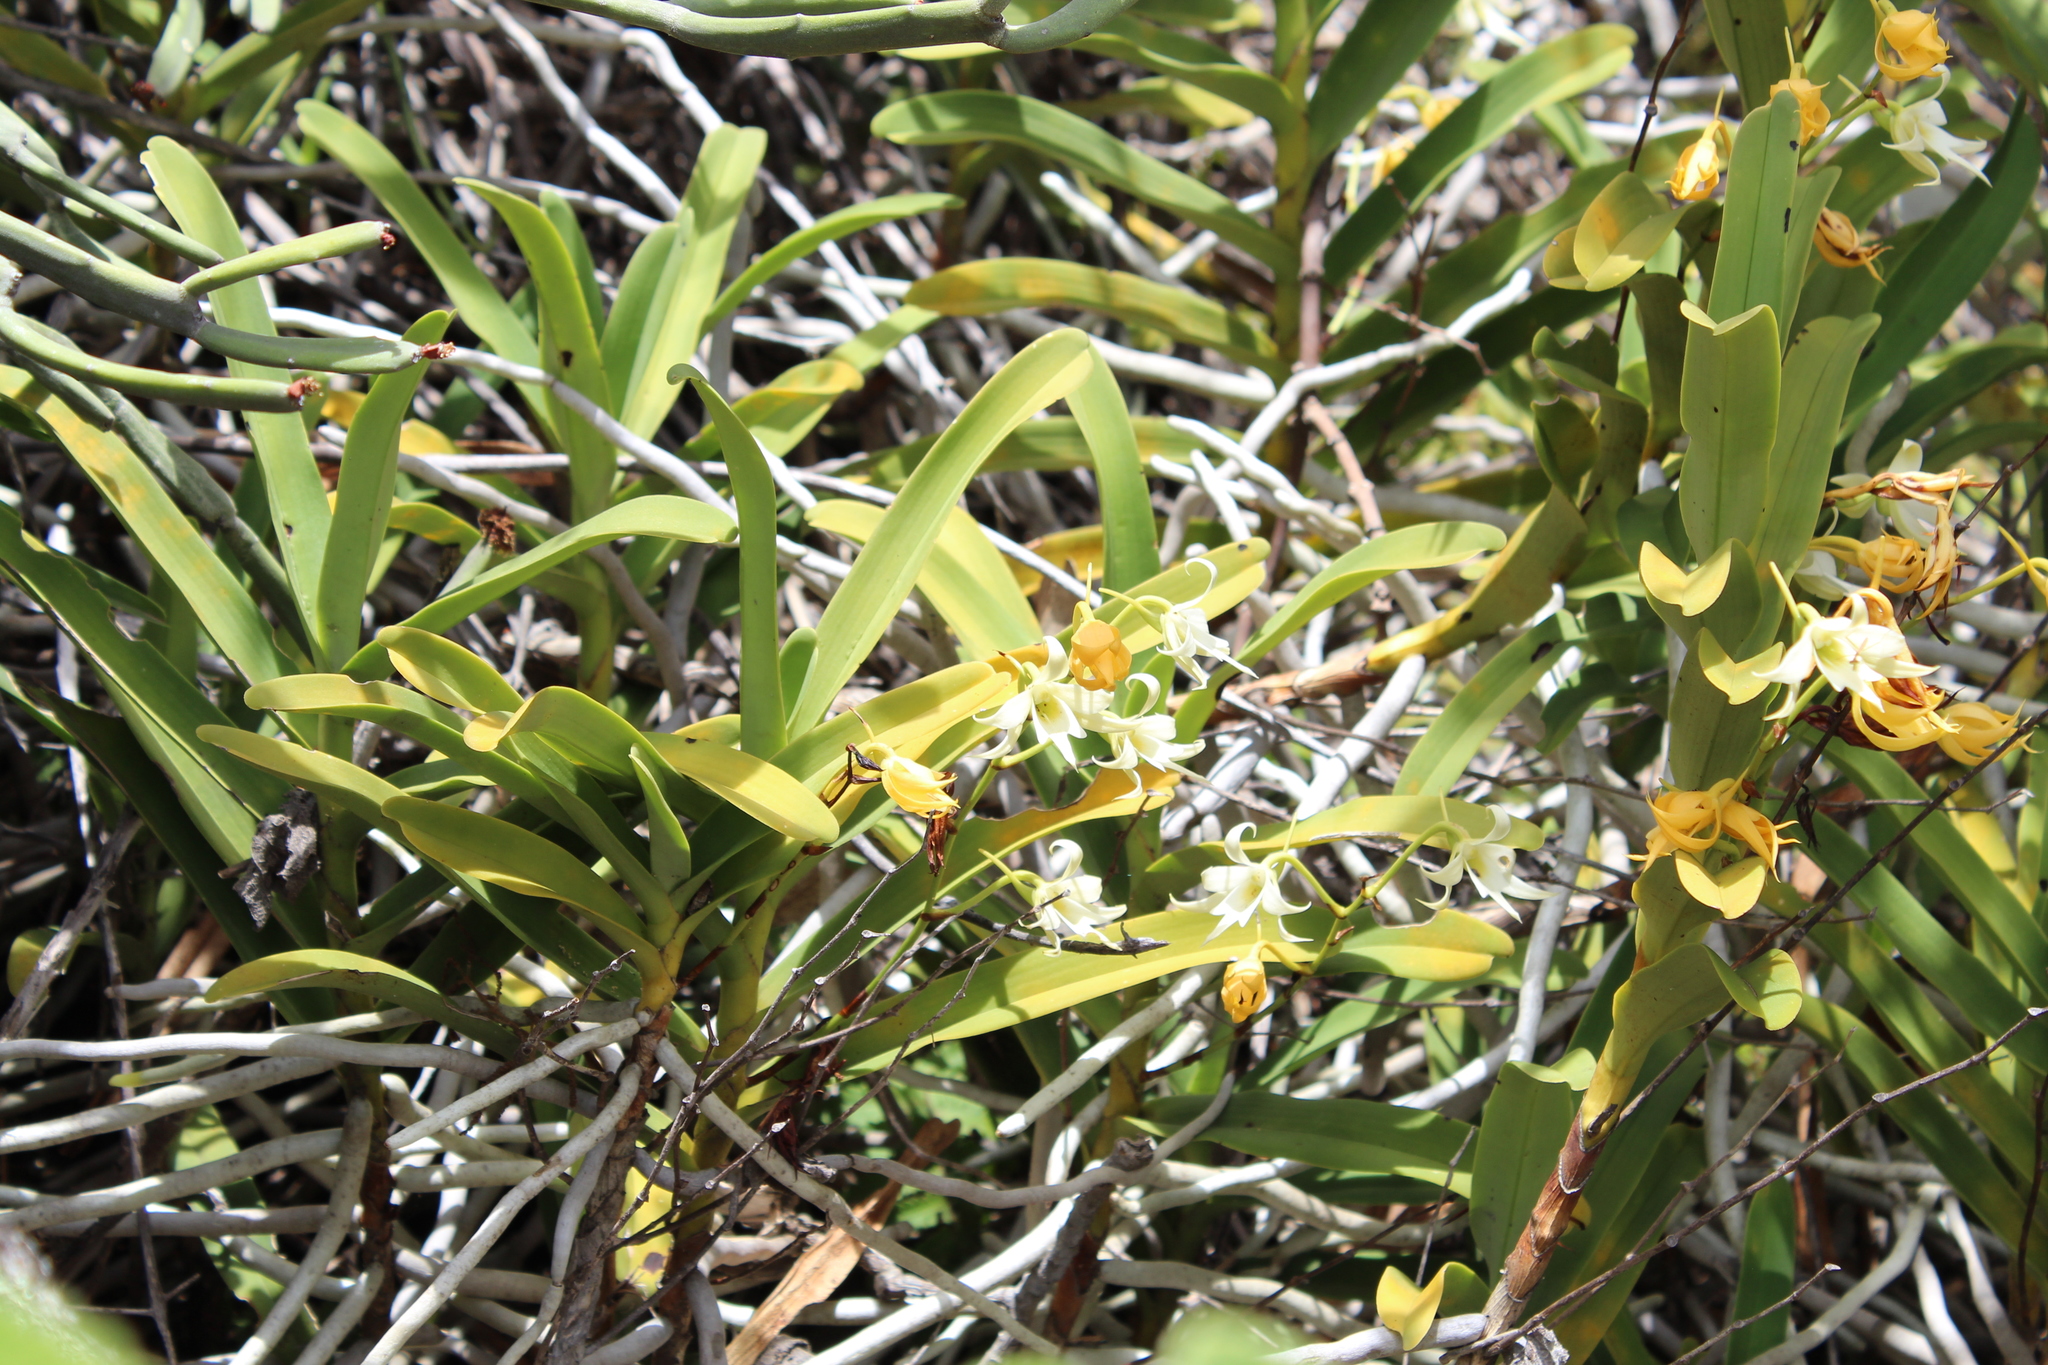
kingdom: Plantae
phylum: Tracheophyta
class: Liliopsida
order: Asparagales
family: Orchidaceae
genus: Sobennikoffia
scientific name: Sobennikoffia humbertiana
